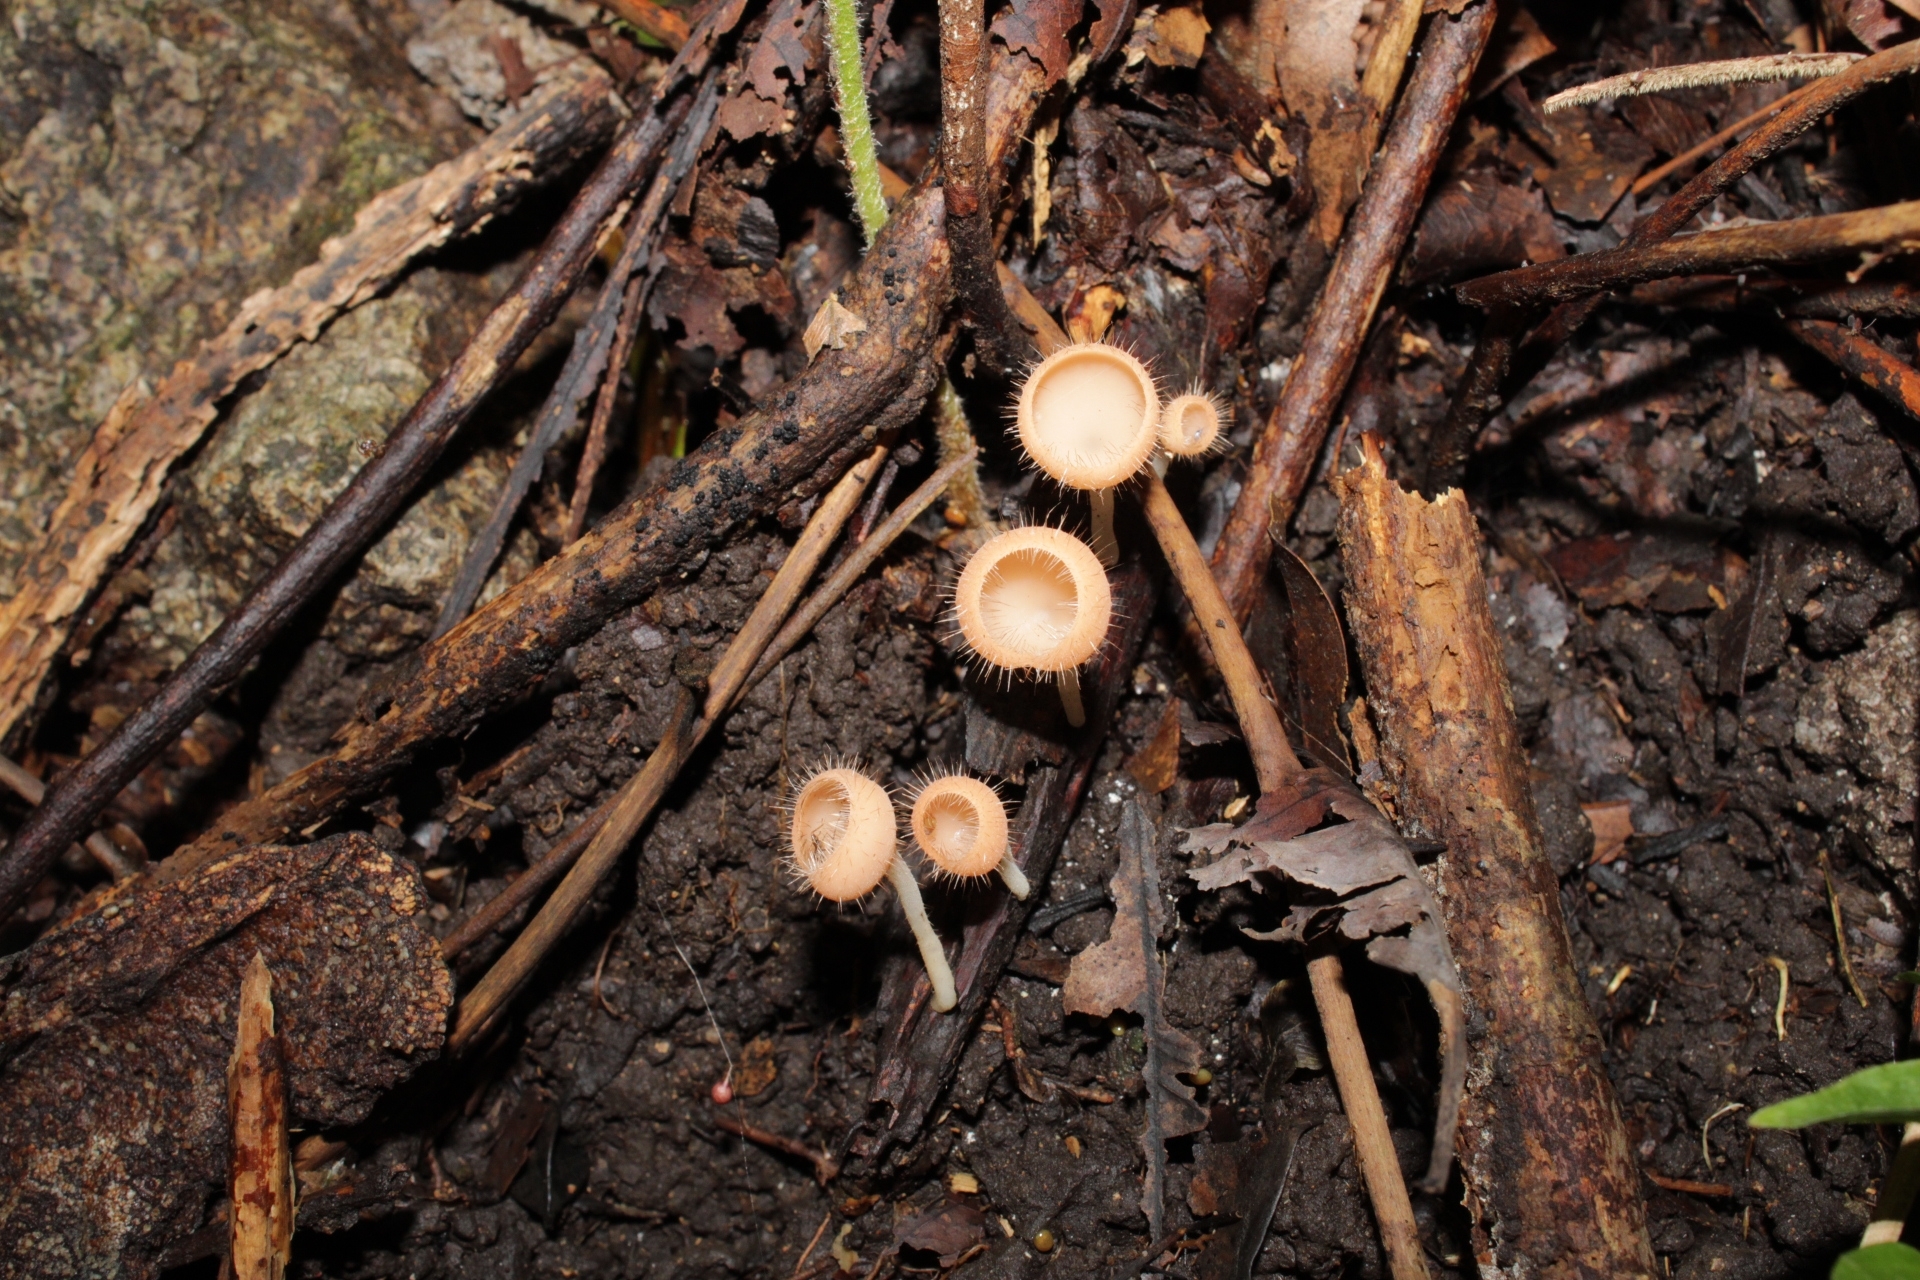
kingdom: Fungi
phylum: Ascomycota
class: Pezizomycetes
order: Pezizales
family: Sarcoscyphaceae
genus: Cookeina
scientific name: Cookeina tricholoma
